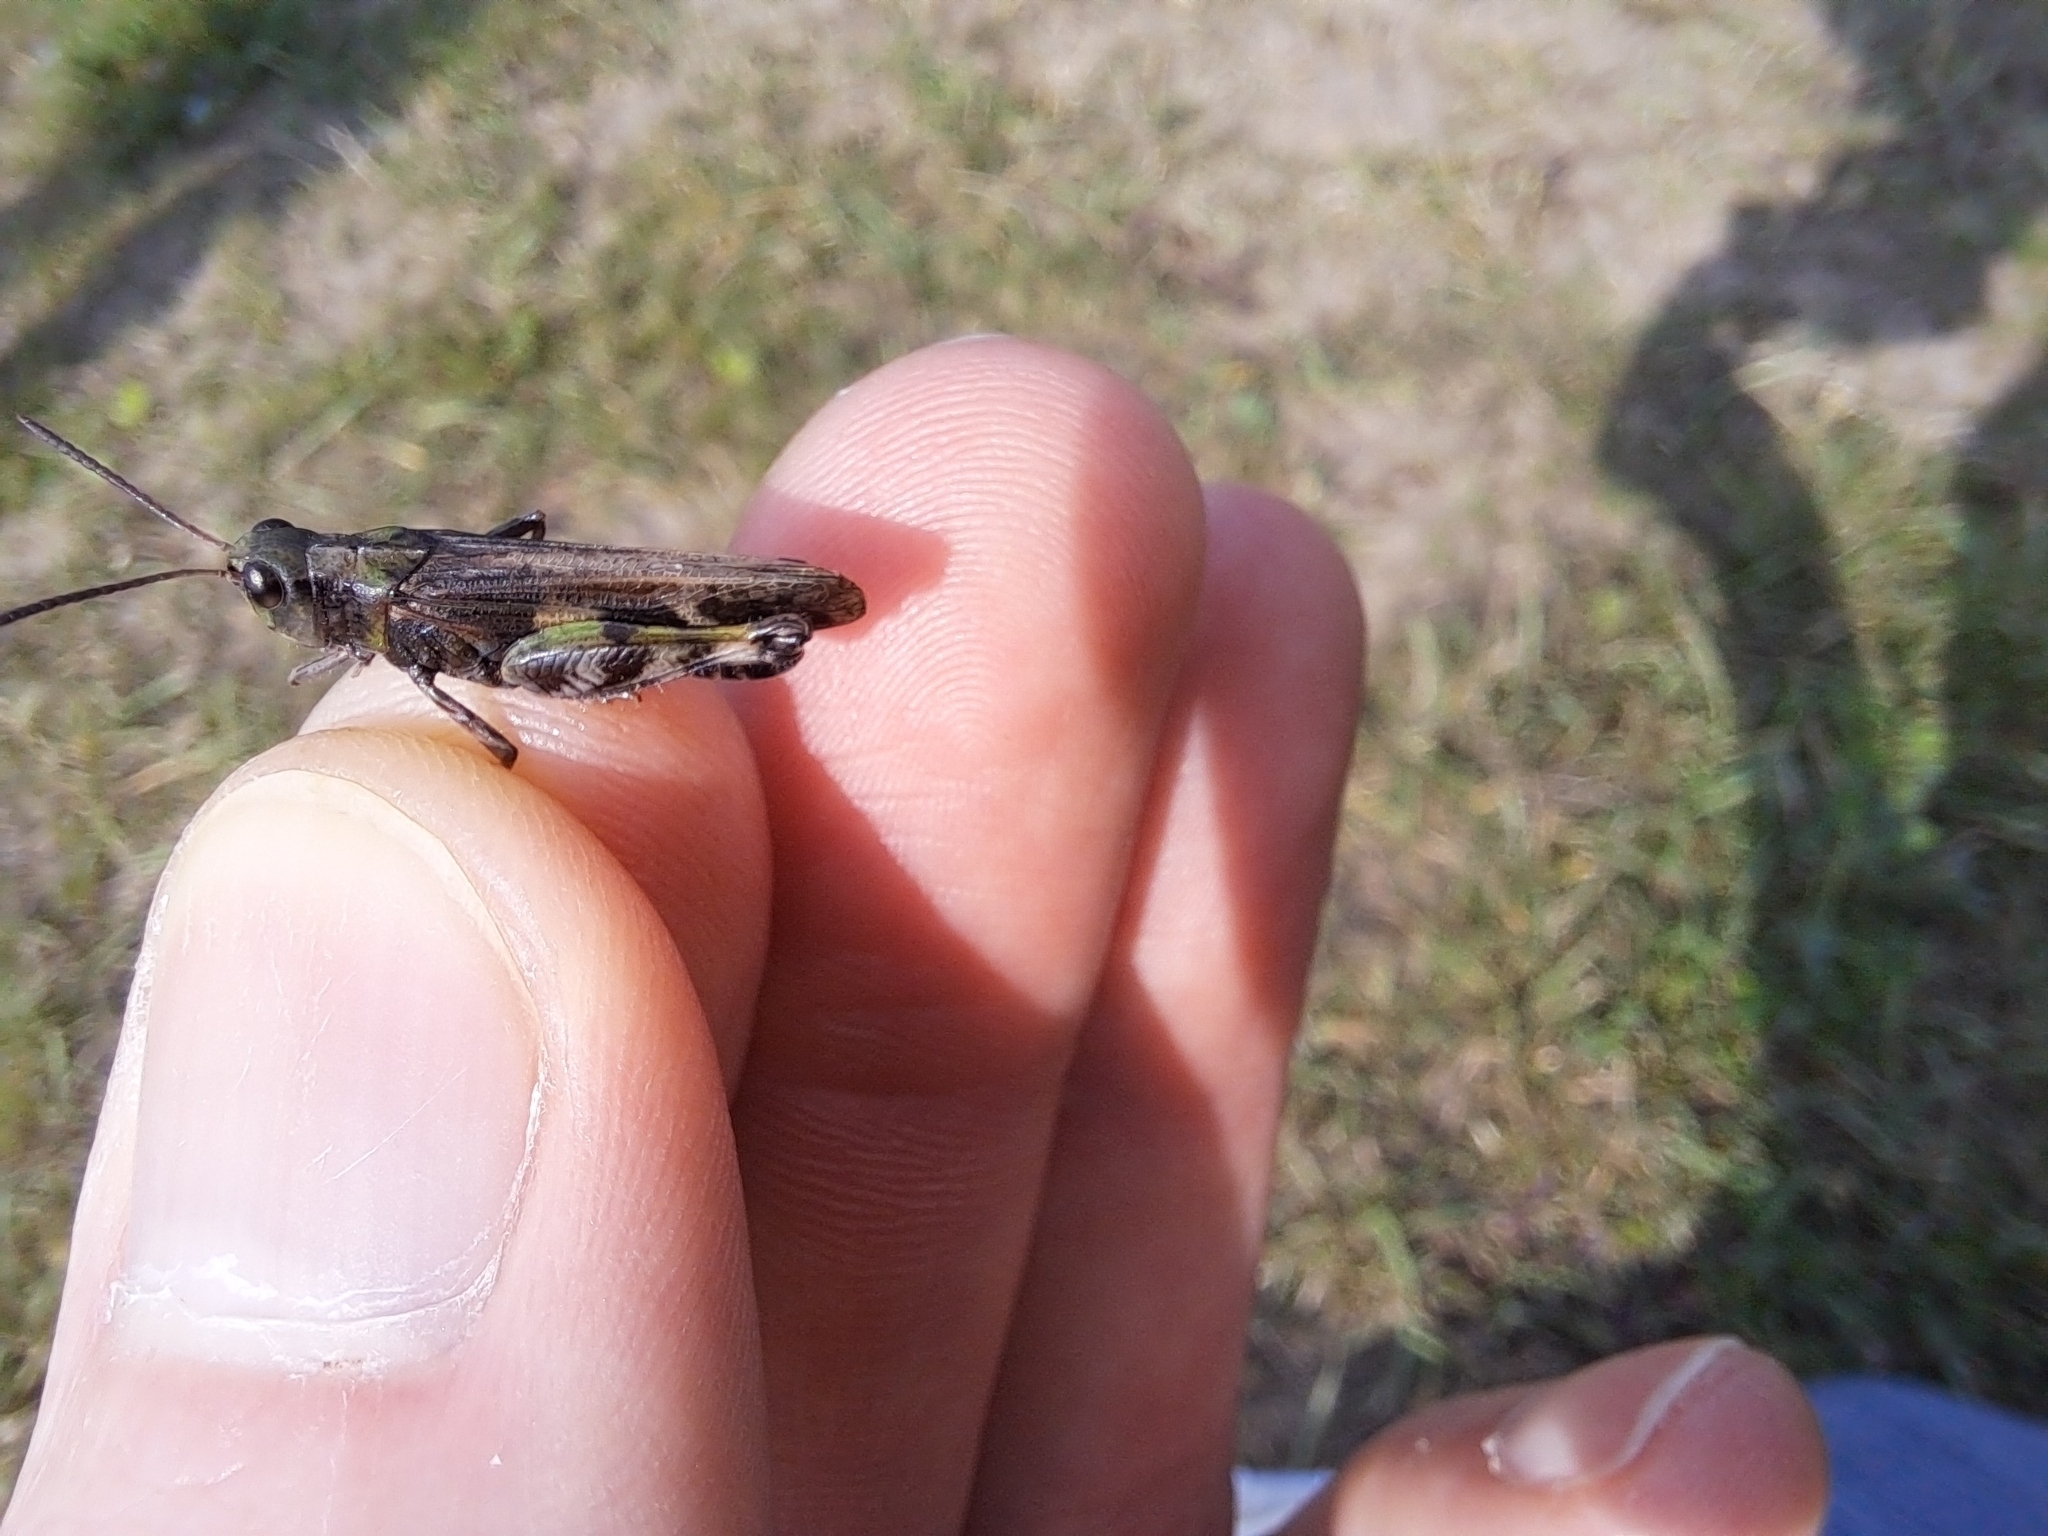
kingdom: Animalia
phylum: Arthropoda
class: Insecta
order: Orthoptera
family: Acrididae
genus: Encoptolophus
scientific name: Encoptolophus costalis
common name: Dusky grasshopper
